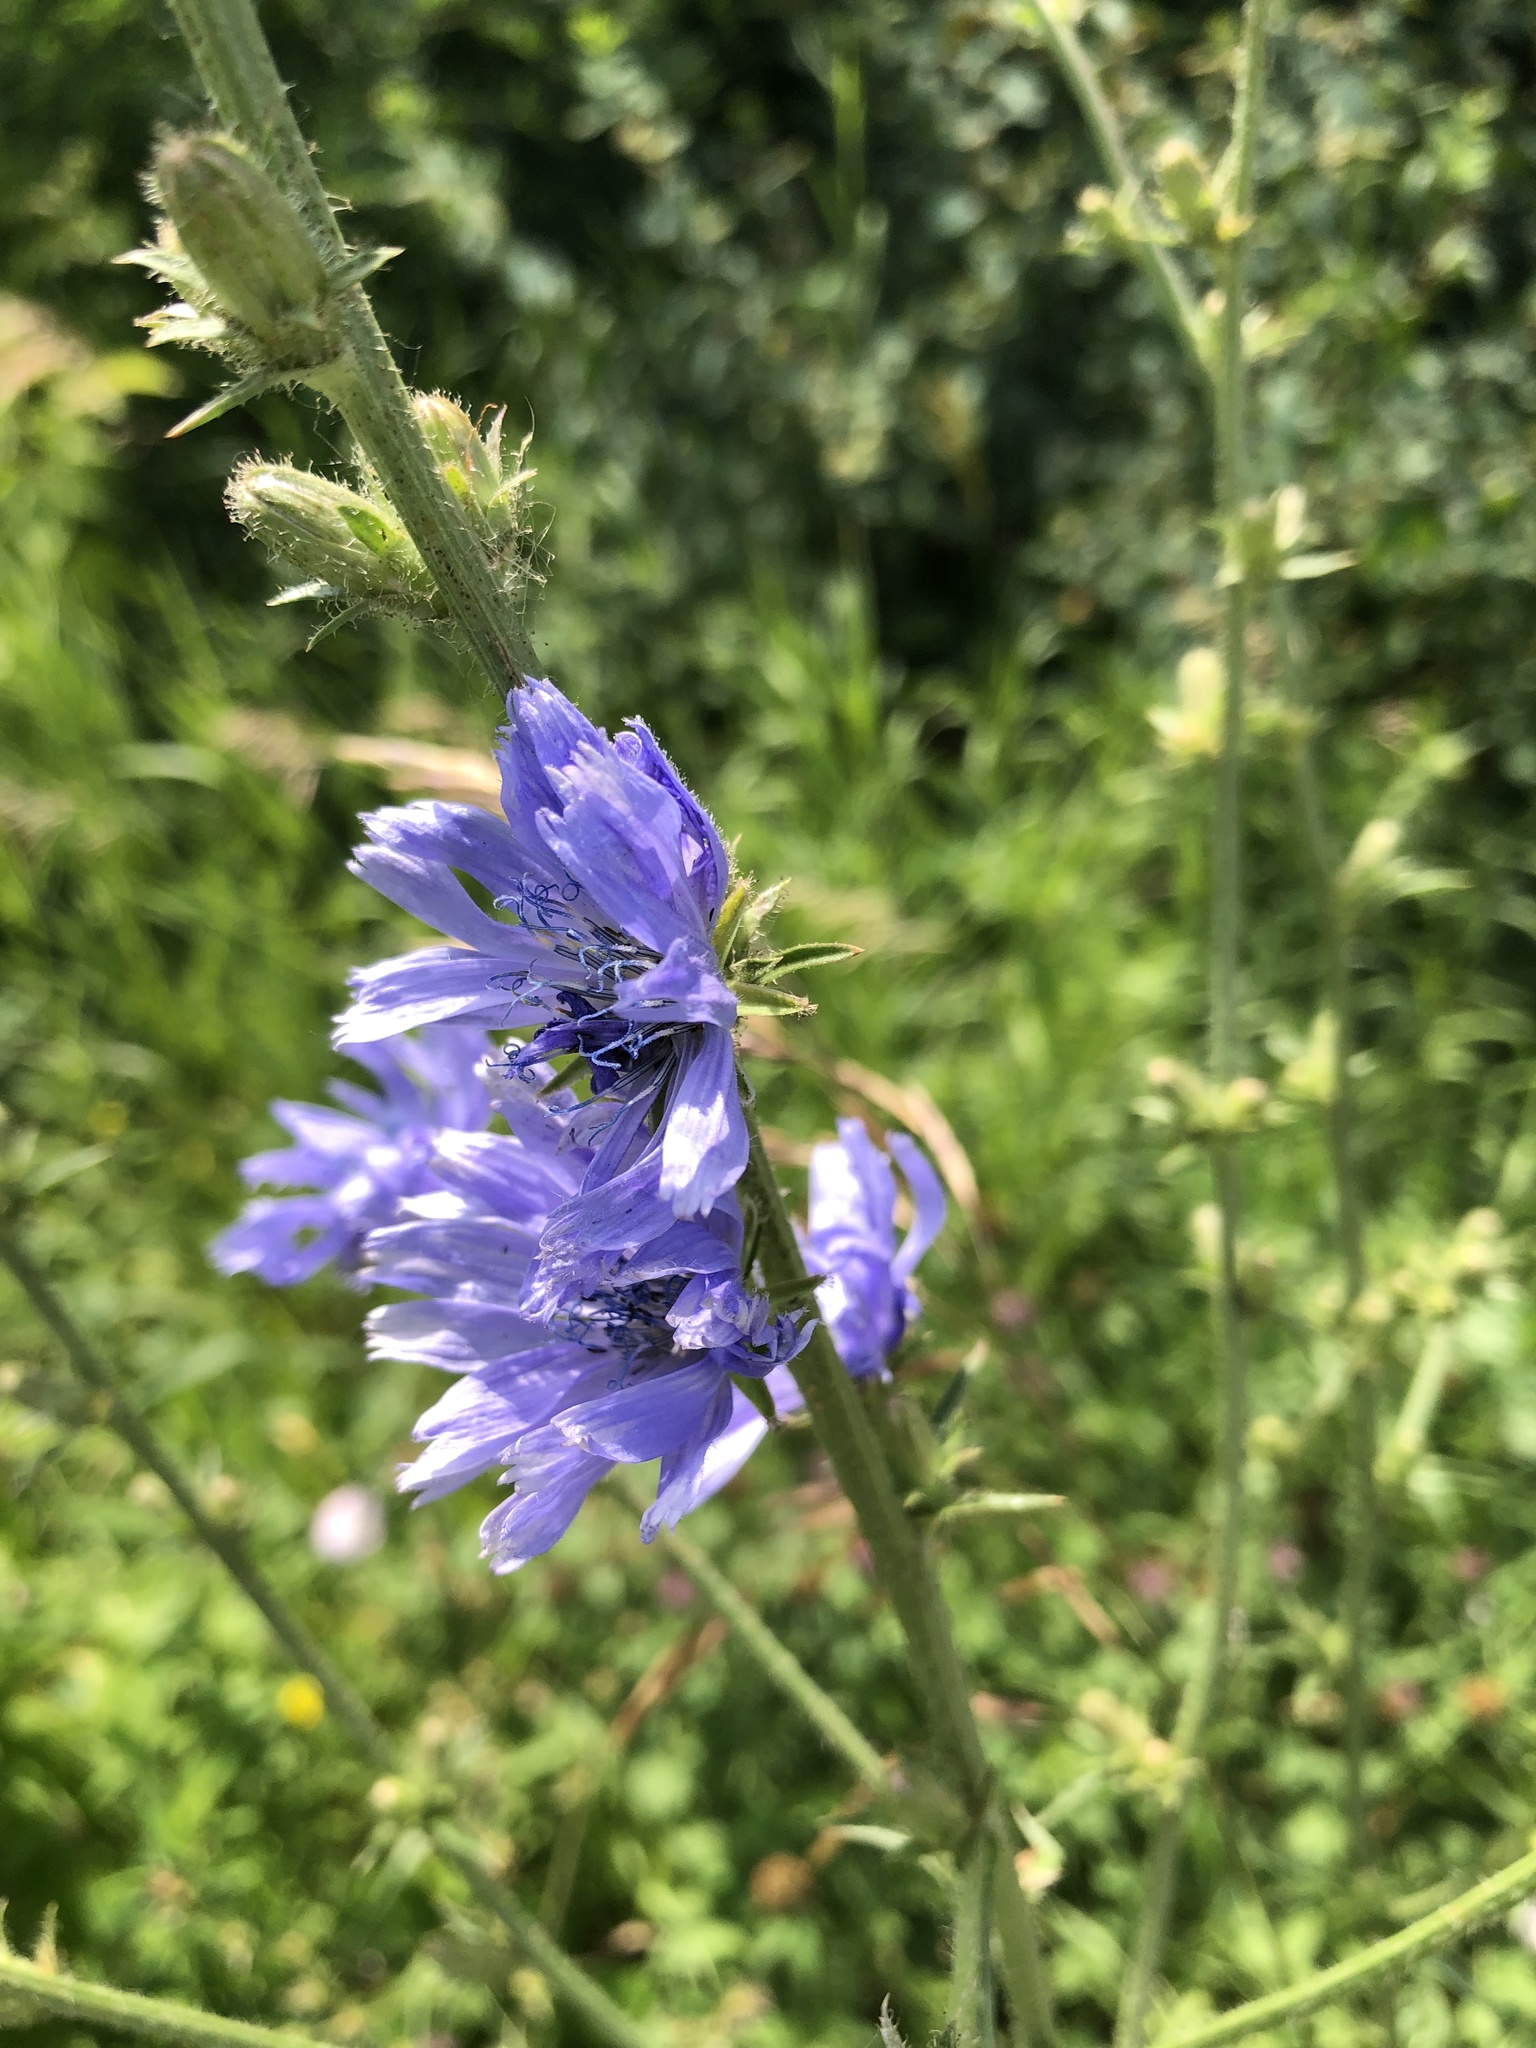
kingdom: Plantae
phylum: Tracheophyta
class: Magnoliopsida
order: Asterales
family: Asteraceae
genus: Cichorium
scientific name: Cichorium intybus
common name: Chicory
